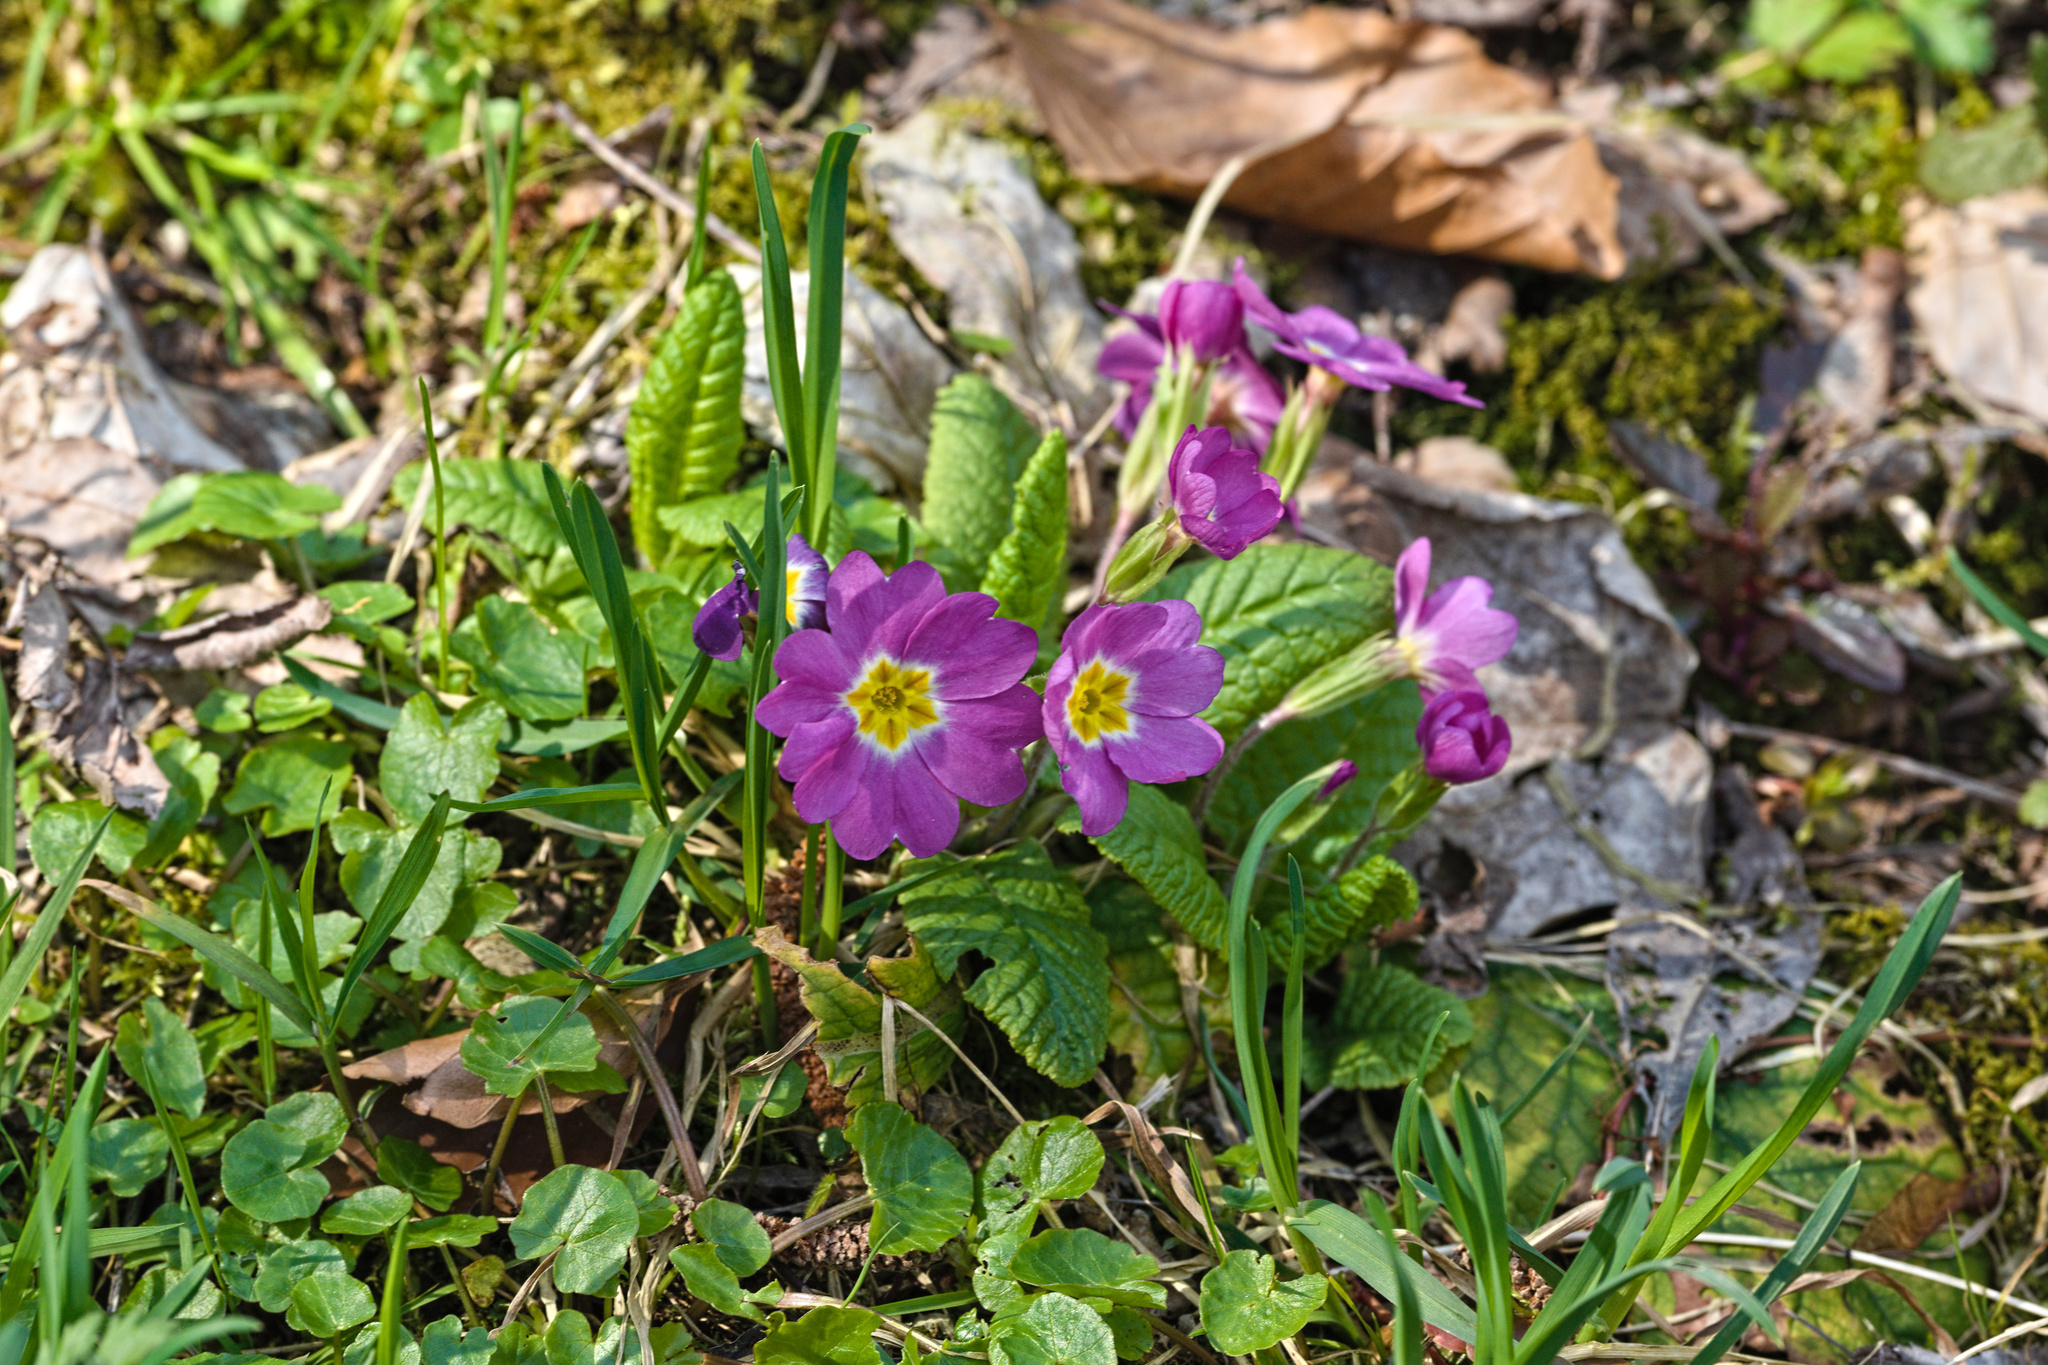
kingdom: Plantae
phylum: Tracheophyta
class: Magnoliopsida
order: Ericales
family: Primulaceae
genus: Primula
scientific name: Primula vulgaris
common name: Primrose
